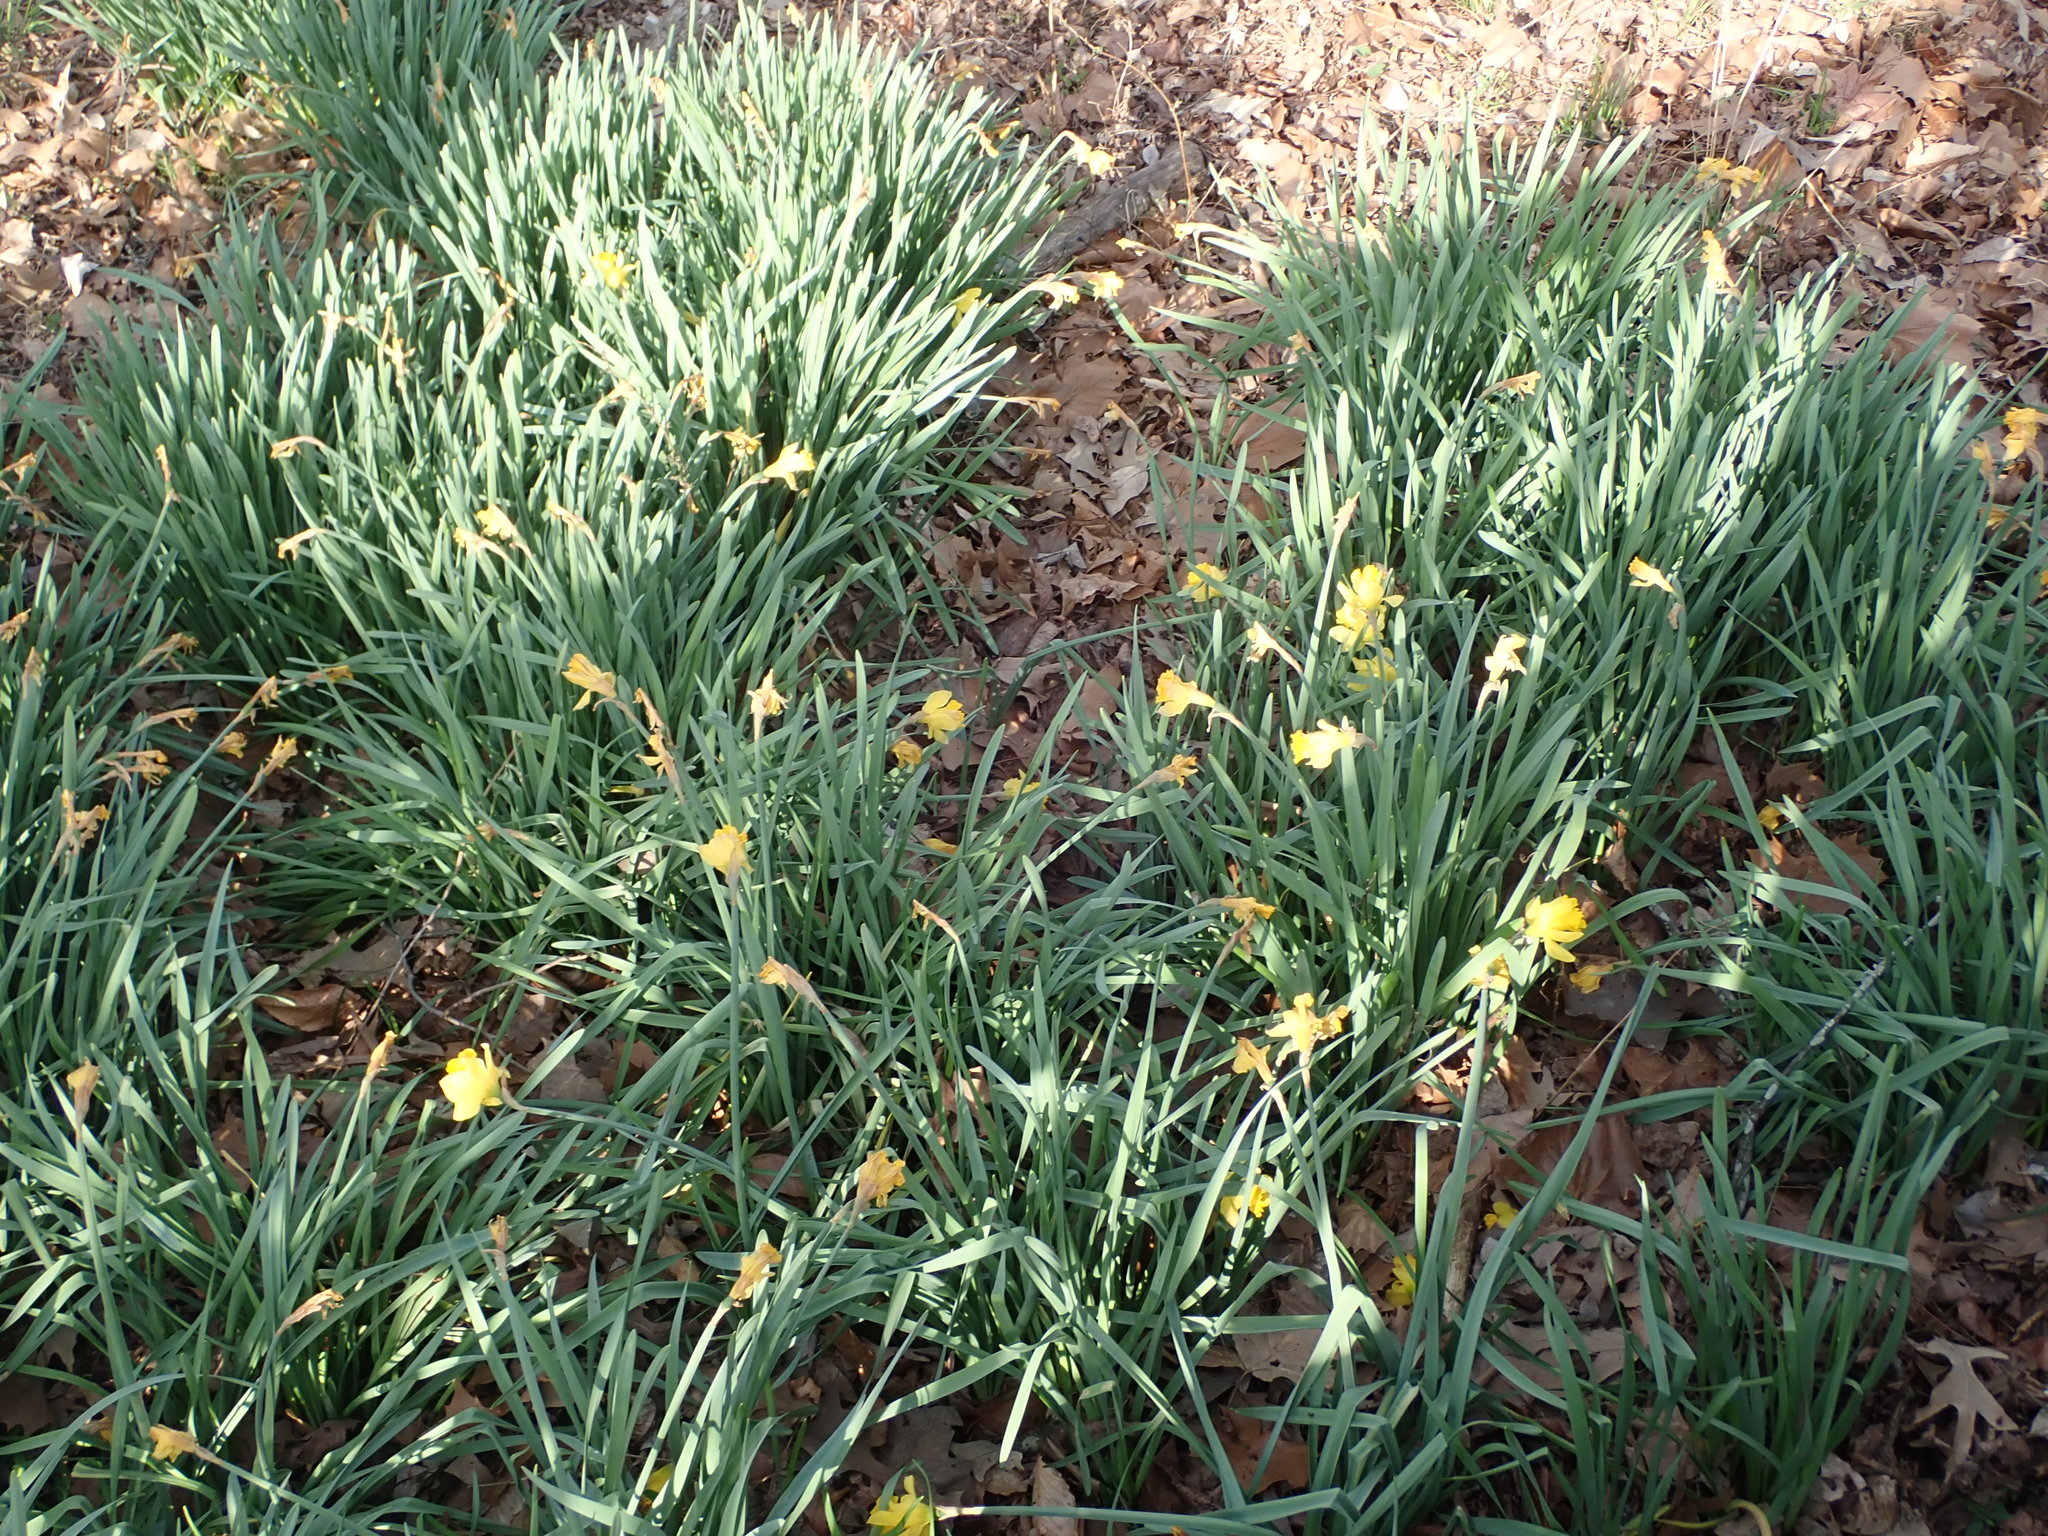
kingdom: Plantae
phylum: Tracheophyta
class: Liliopsida
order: Asparagales
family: Amaryllidaceae
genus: Narcissus
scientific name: Narcissus pseudonarcissus
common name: Daffodil
